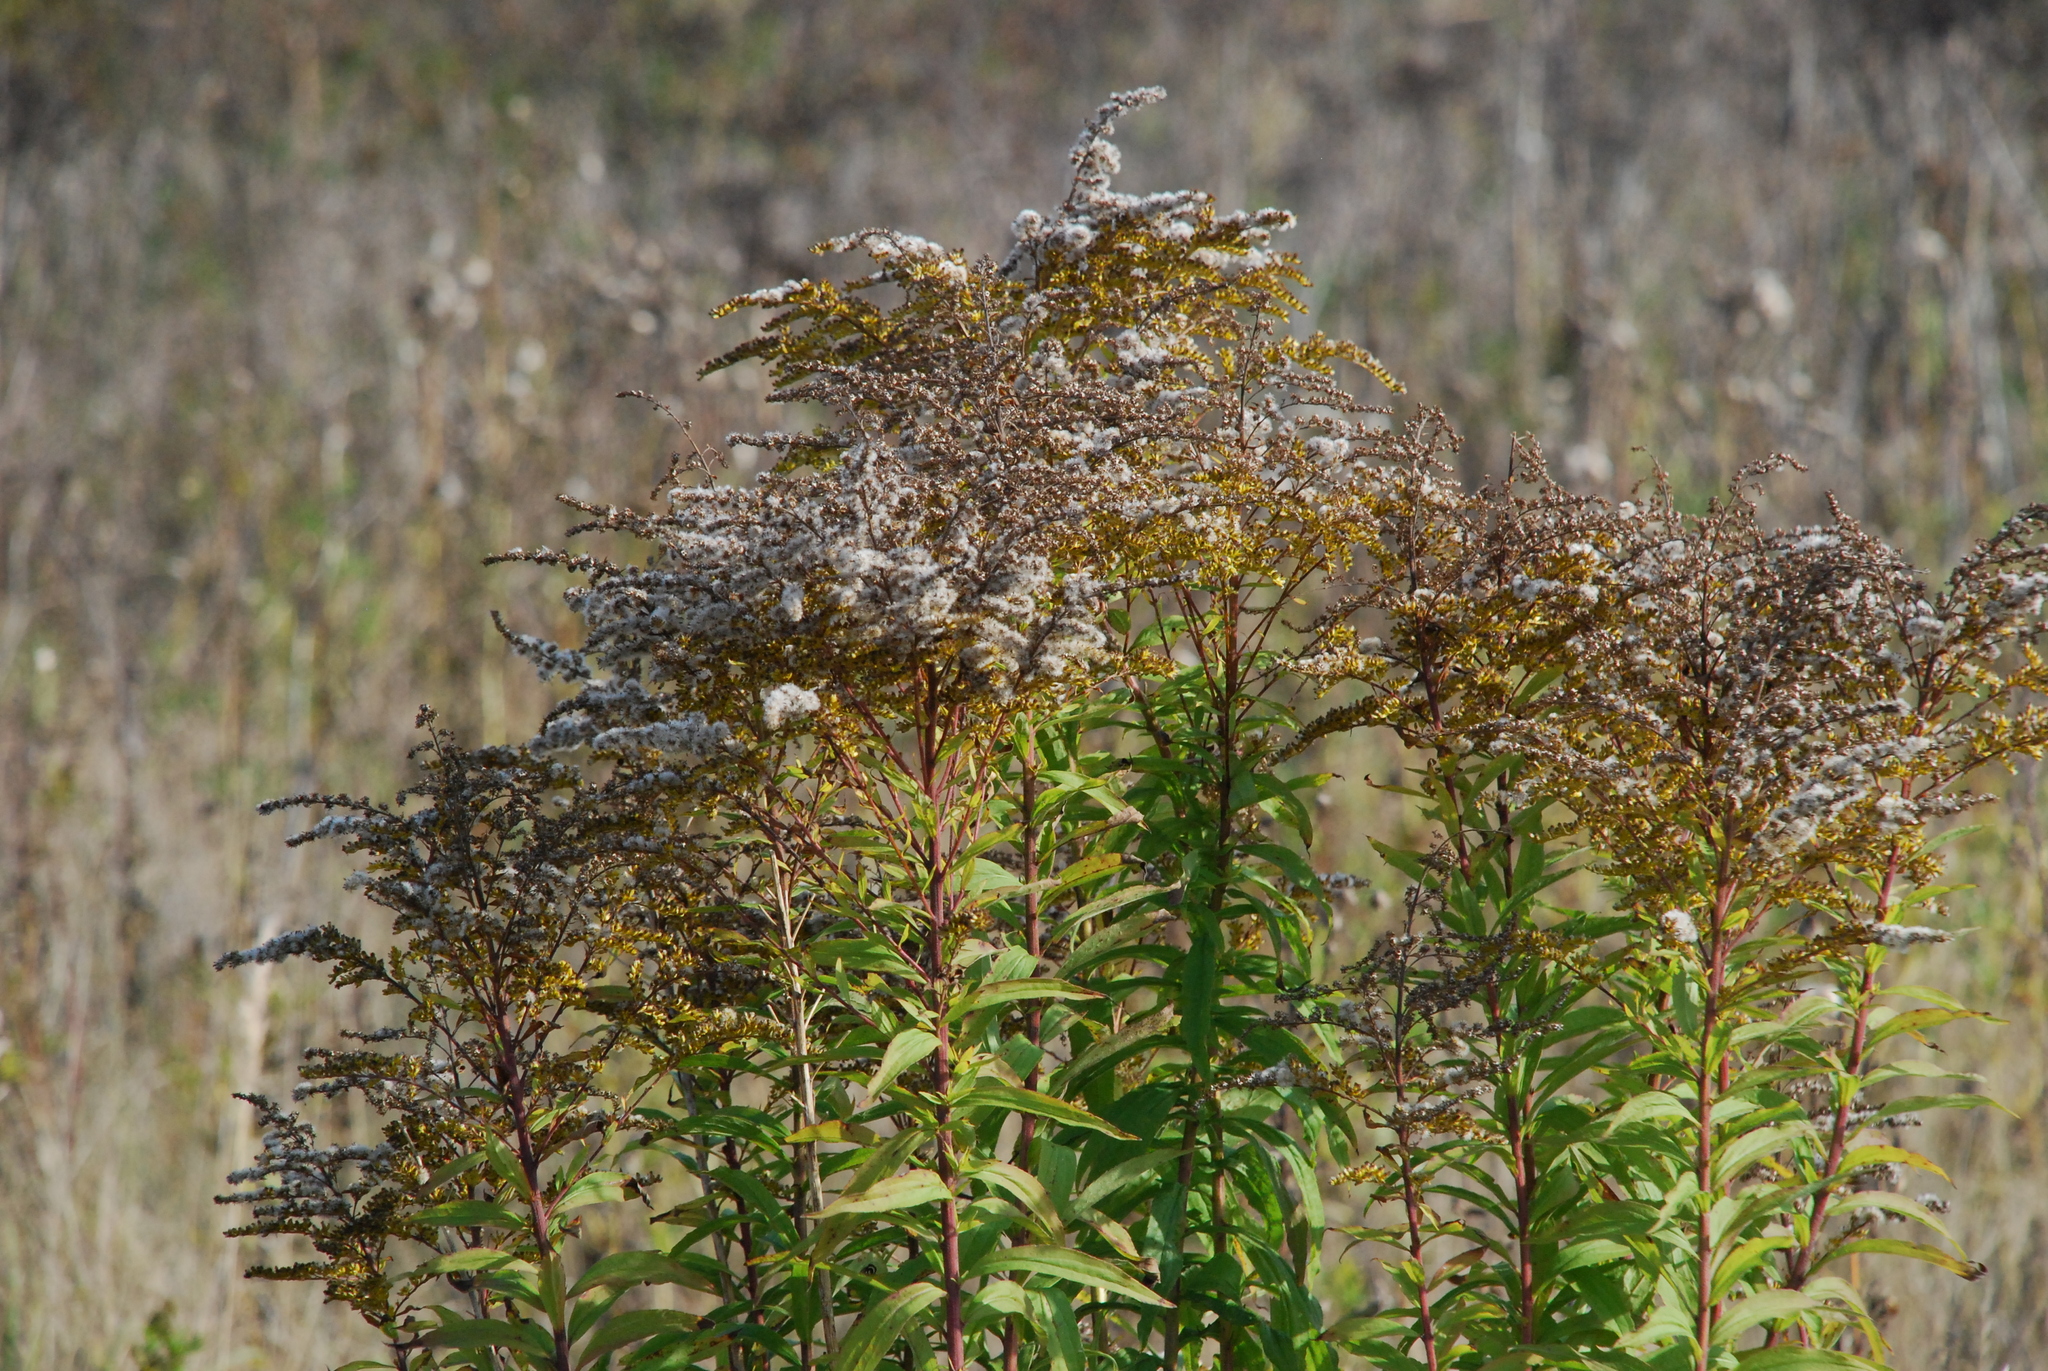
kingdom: Plantae
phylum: Tracheophyta
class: Magnoliopsida
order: Asterales
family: Asteraceae
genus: Solidago
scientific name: Solidago canadensis
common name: Canada goldenrod
